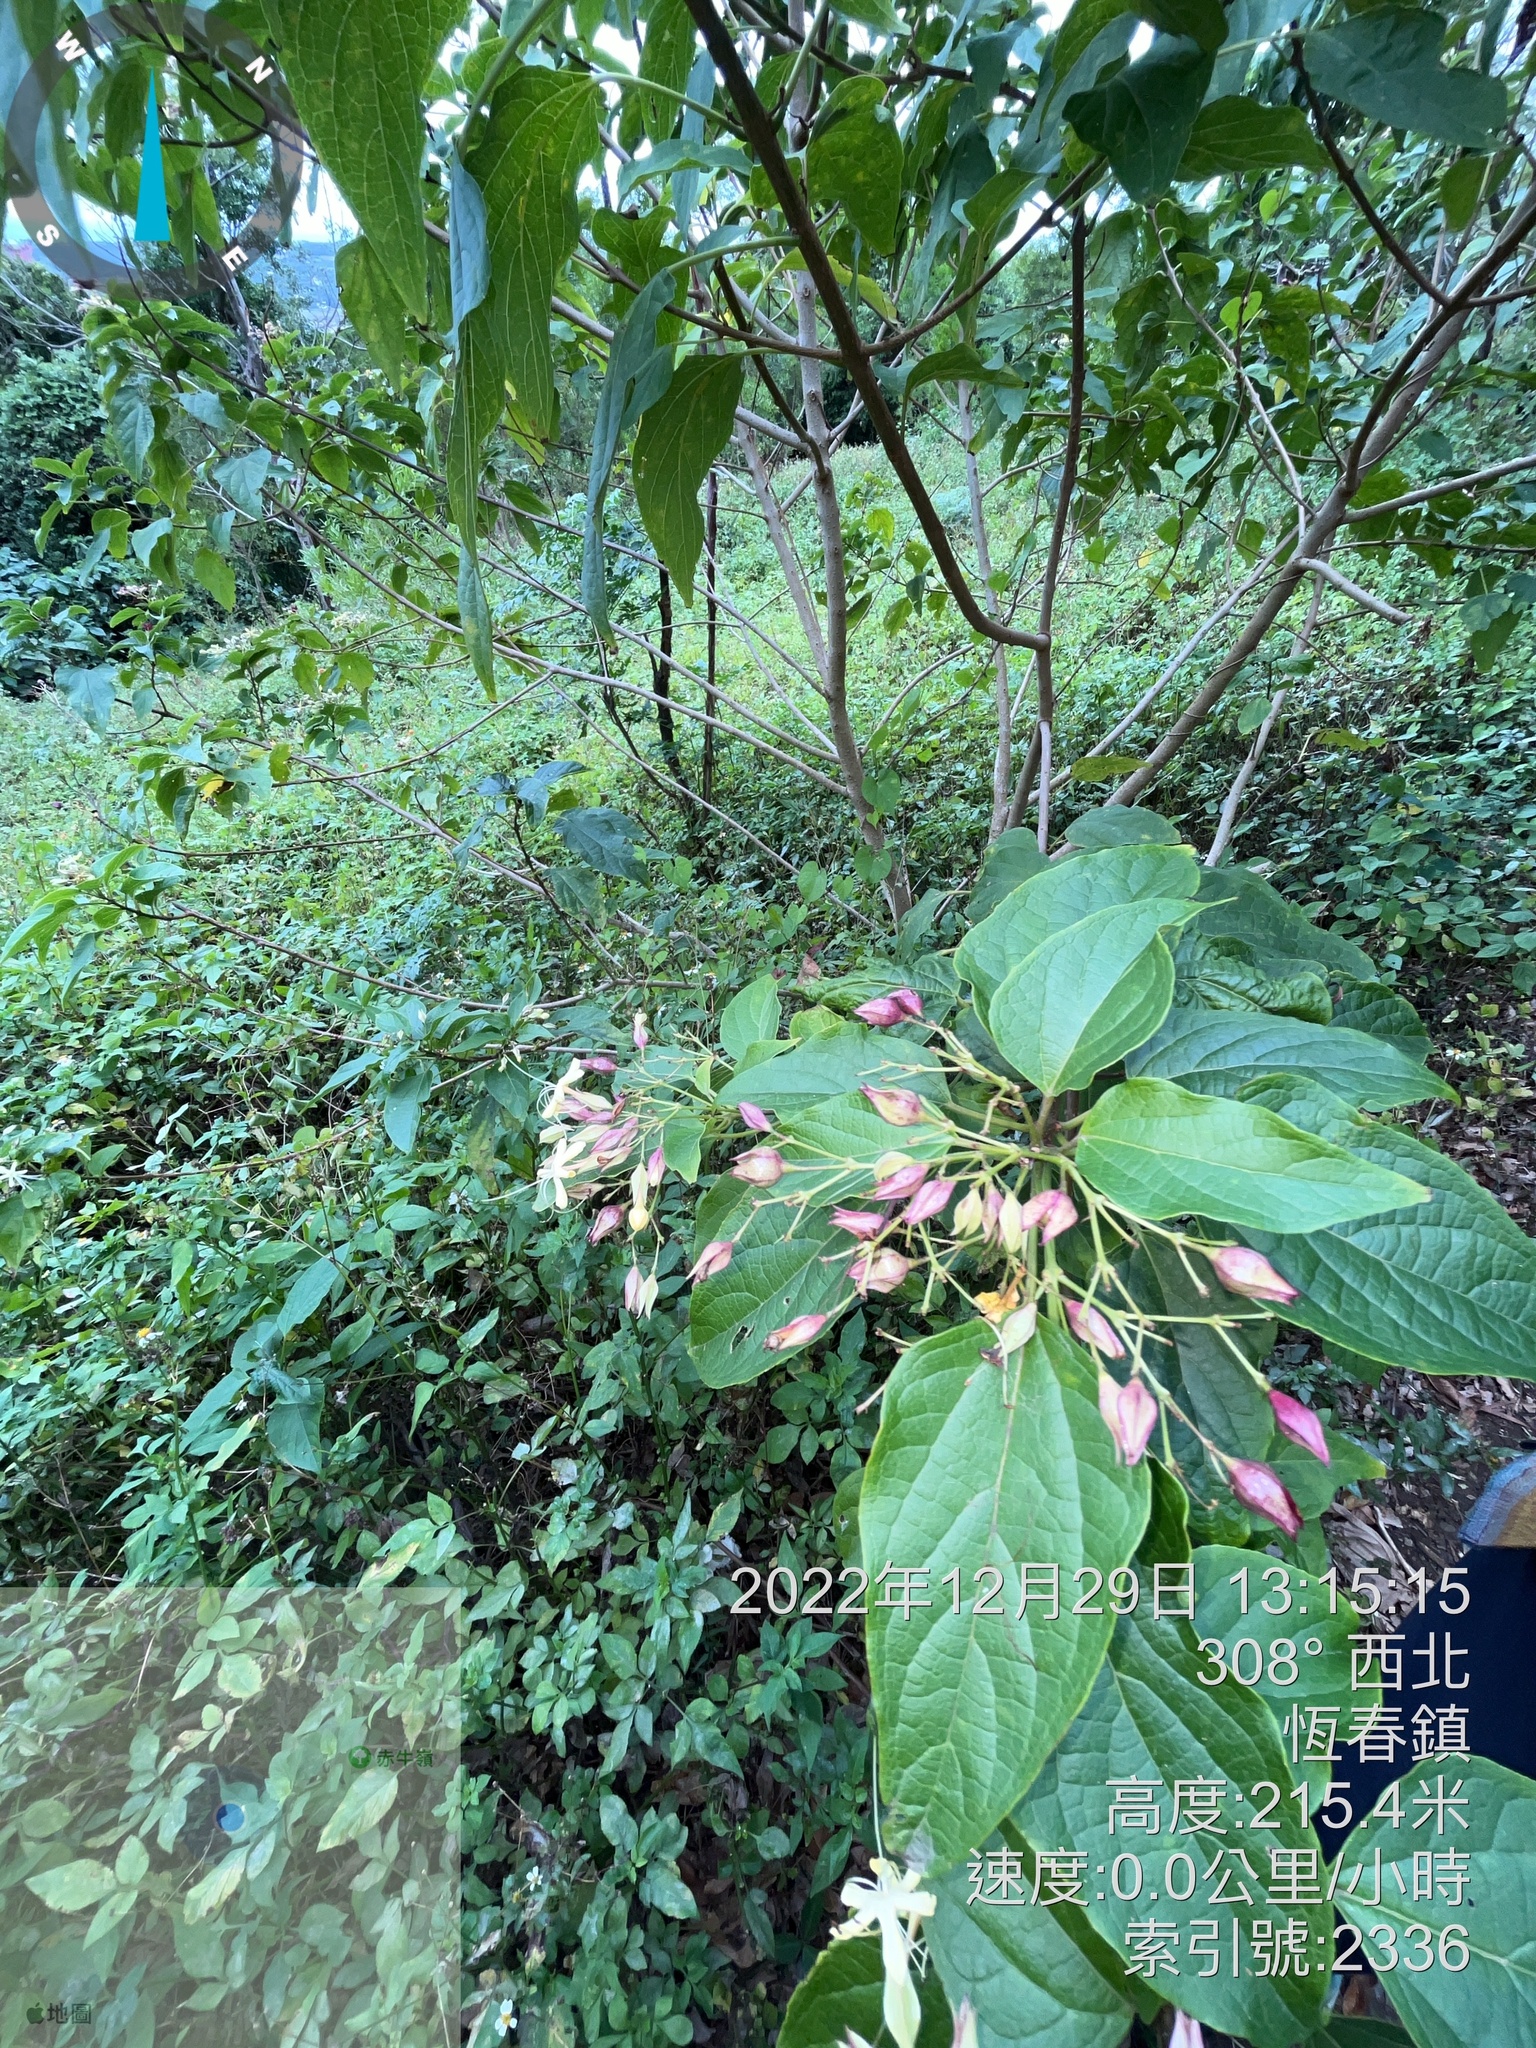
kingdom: Plantae
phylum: Tracheophyta
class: Magnoliopsida
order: Lamiales
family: Lamiaceae
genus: Clerodendrum
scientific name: Clerodendrum trichotomum
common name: Harlequin glorybower
